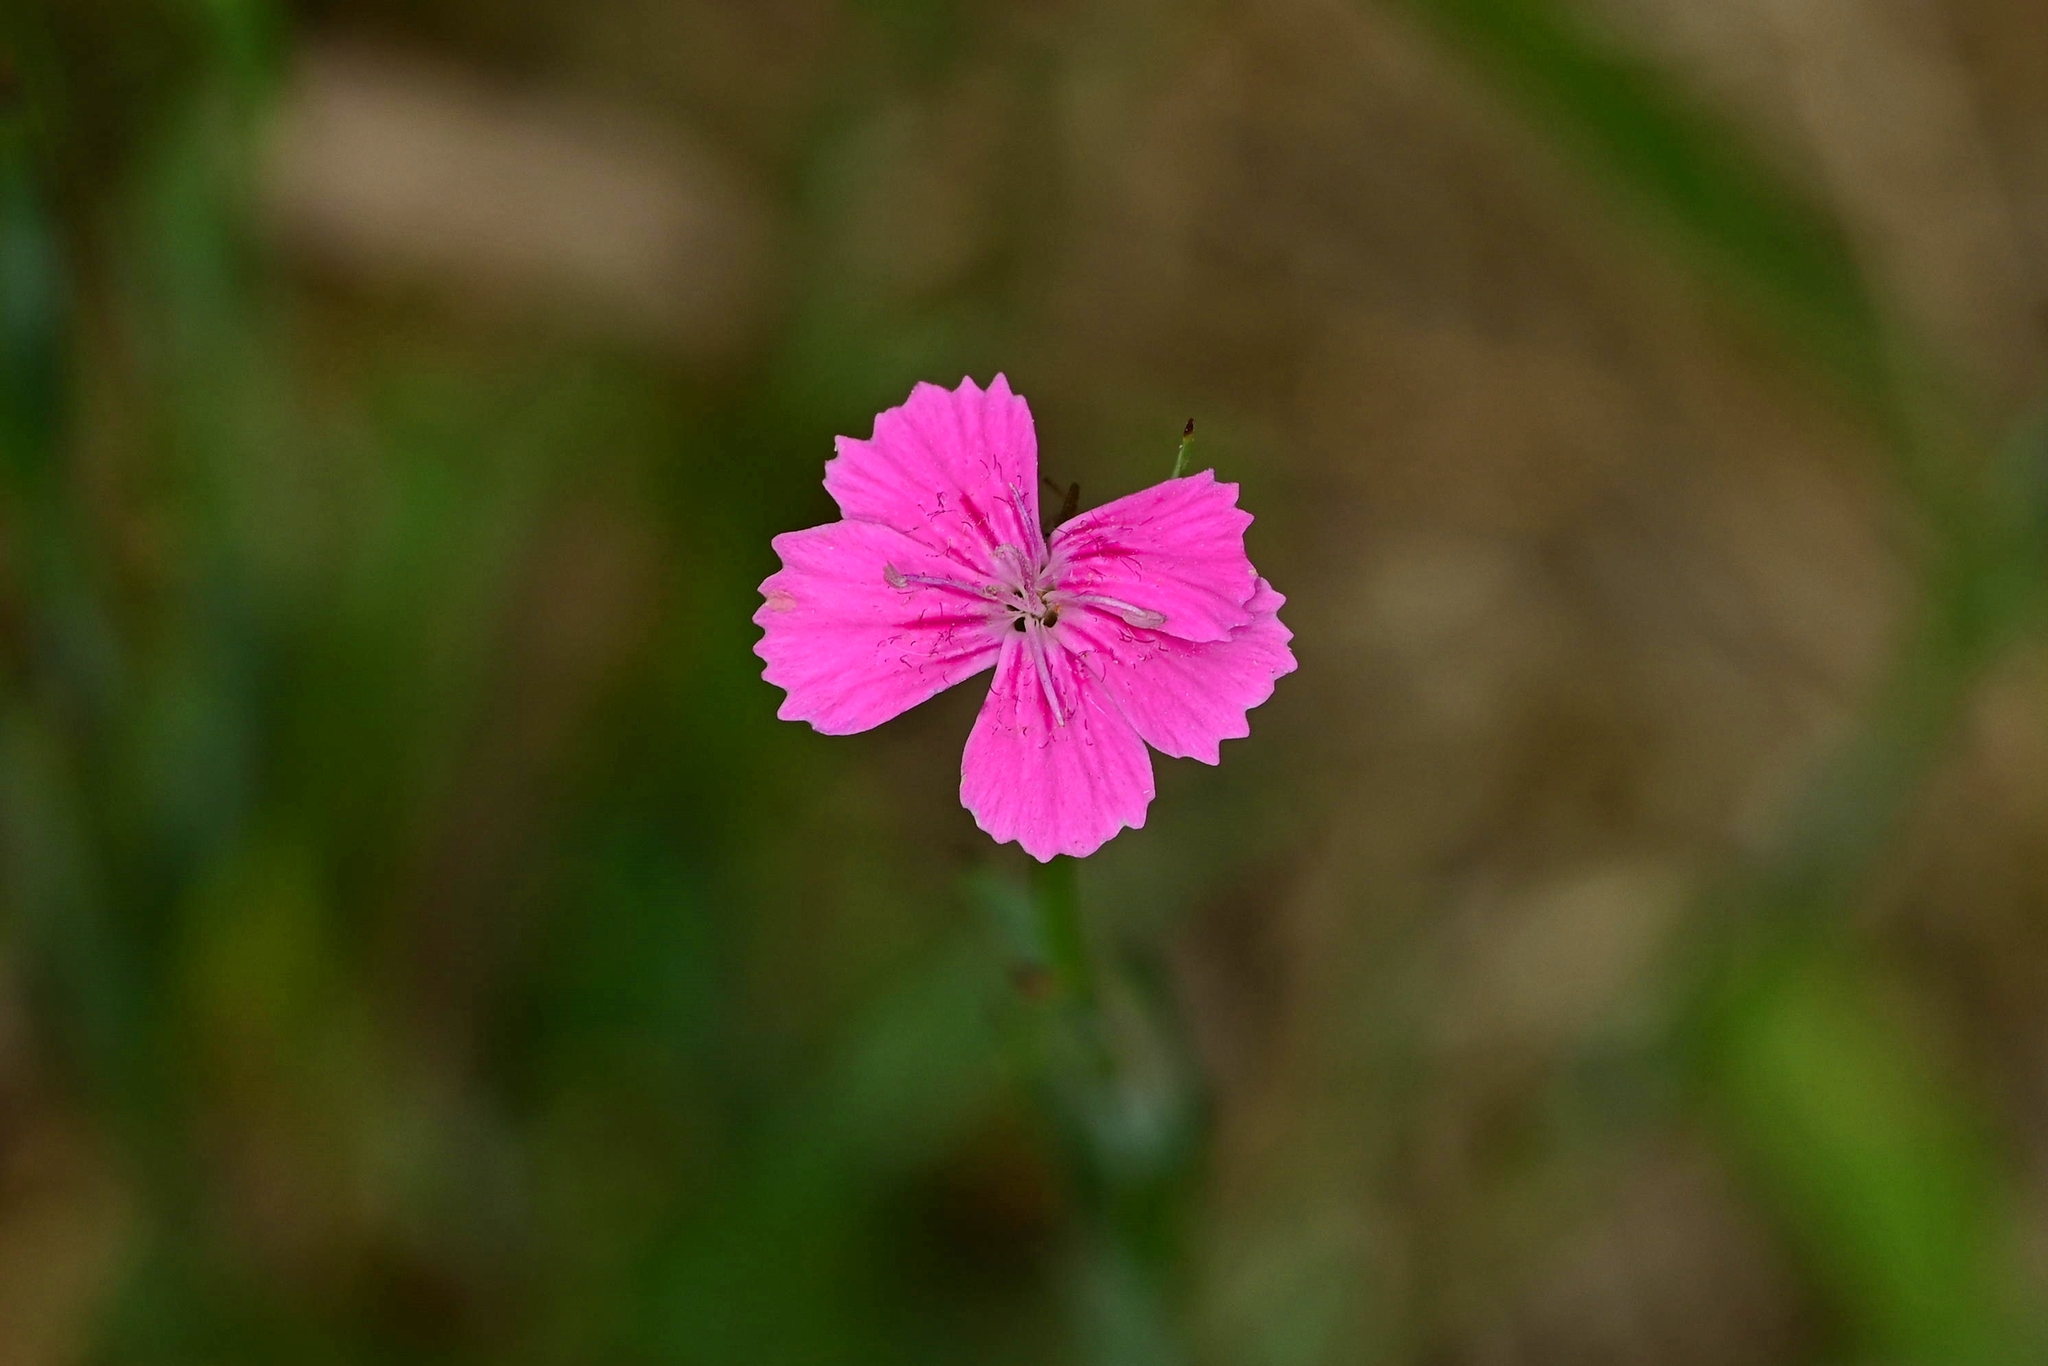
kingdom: Plantae
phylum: Tracheophyta
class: Magnoliopsida
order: Caryophyllales
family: Caryophyllaceae
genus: Dianthus
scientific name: Dianthus carthusianorum
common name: Carthusian pink
